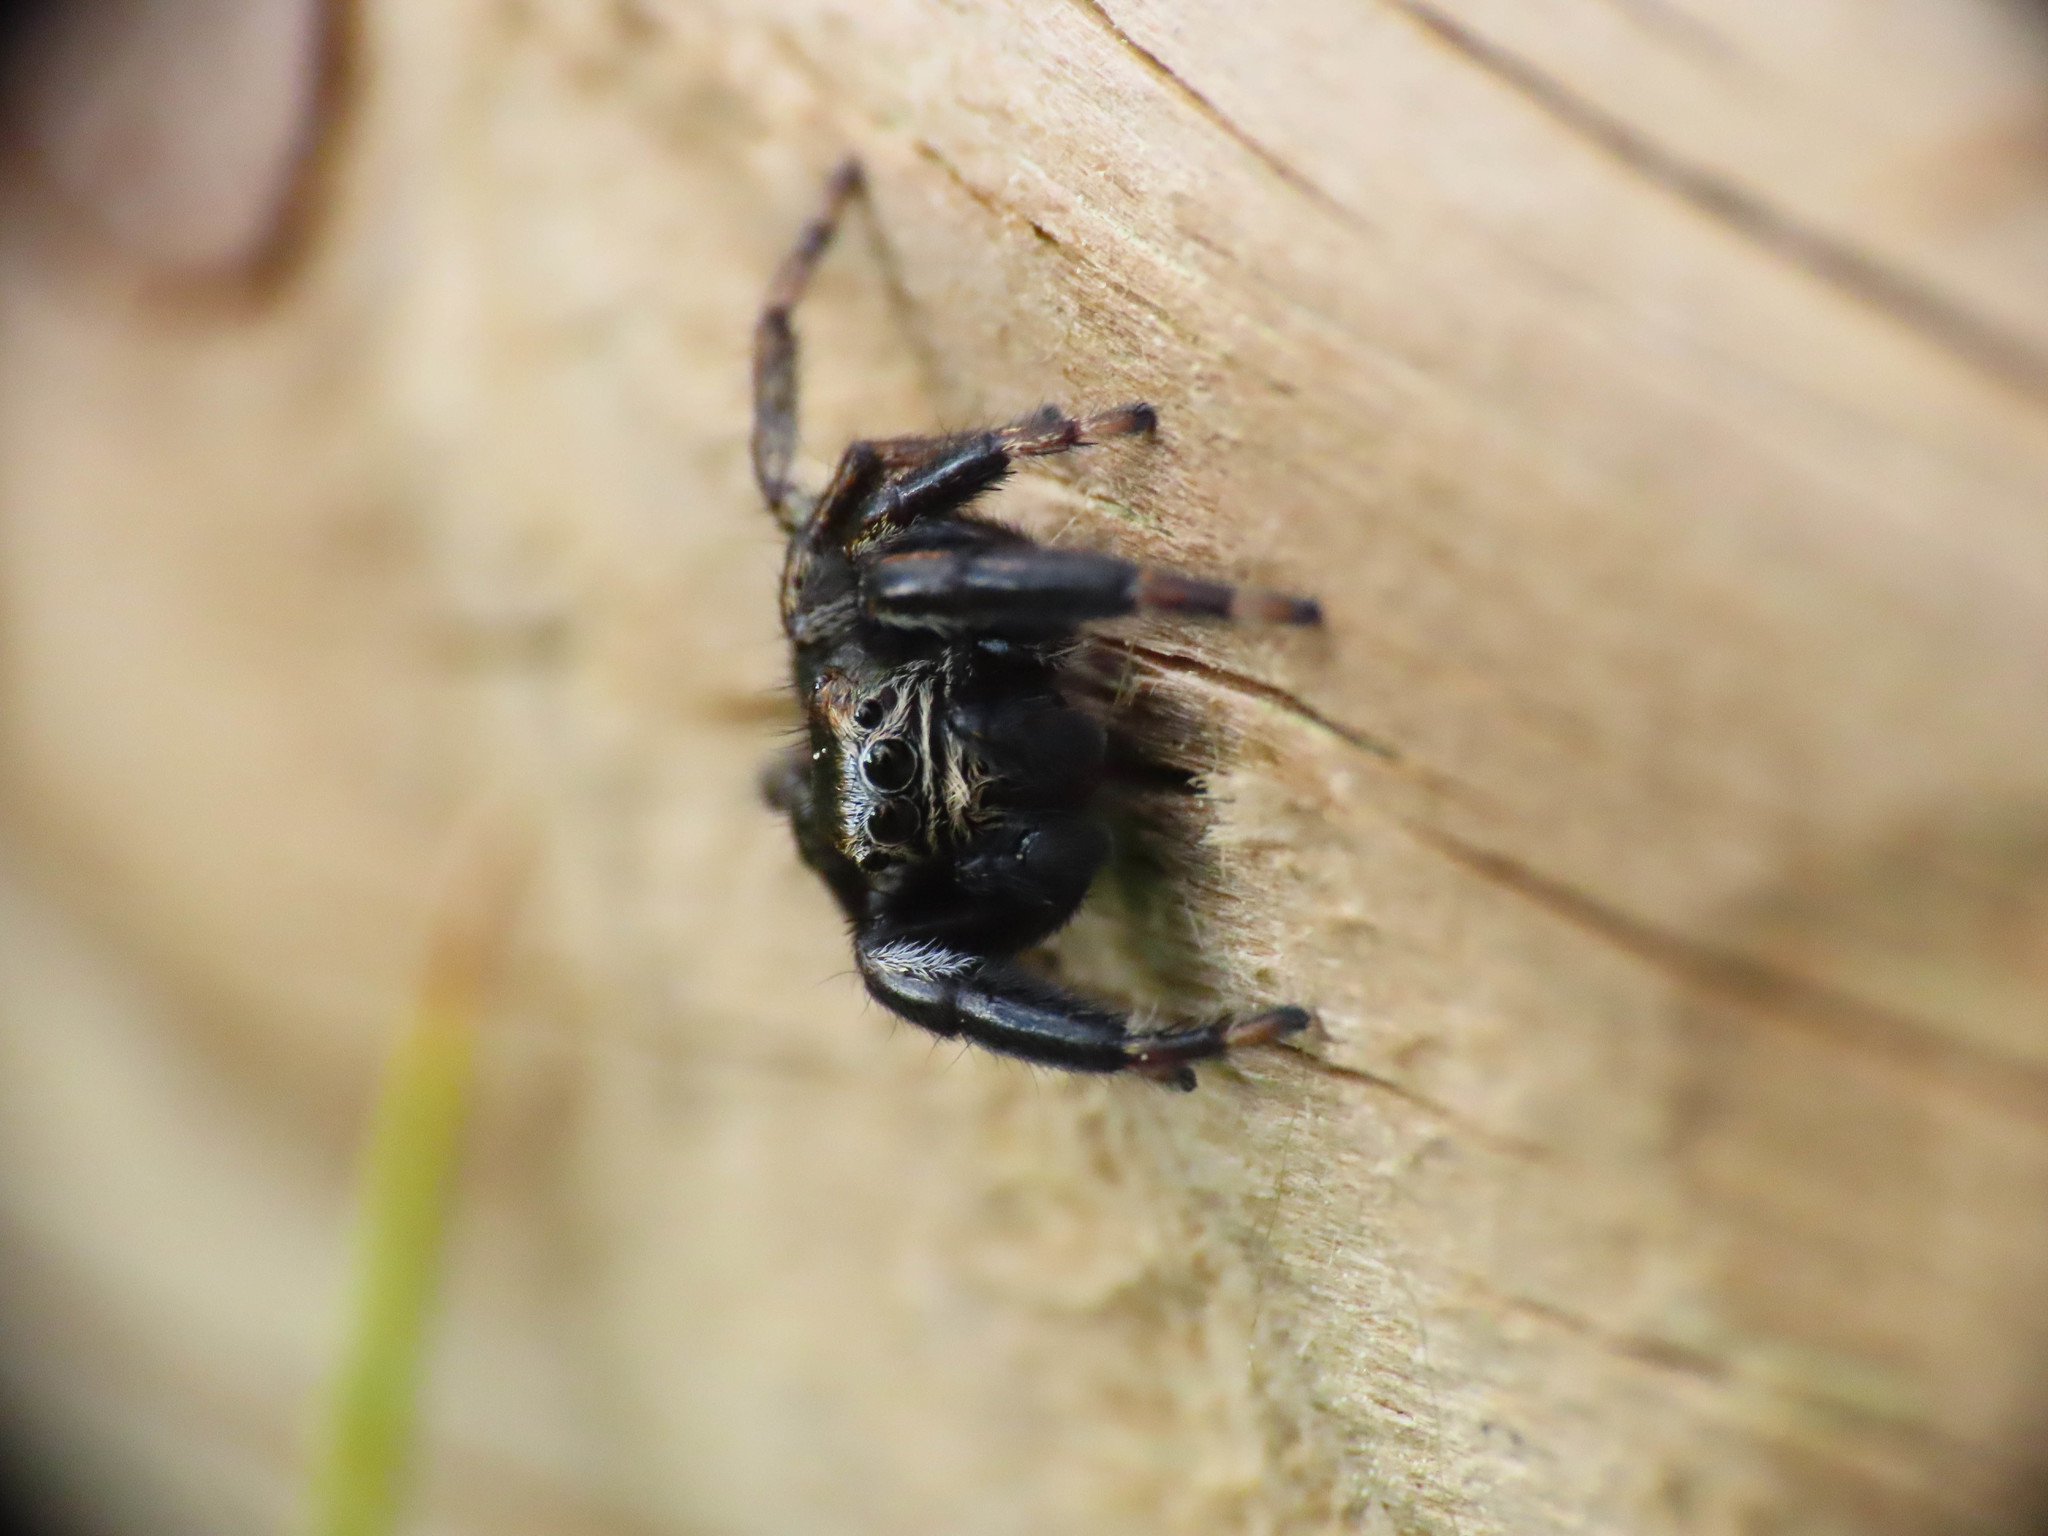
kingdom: Animalia
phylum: Arthropoda
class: Arachnida
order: Araneae
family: Salticidae
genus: Evarcha
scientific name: Evarcha arcuata
